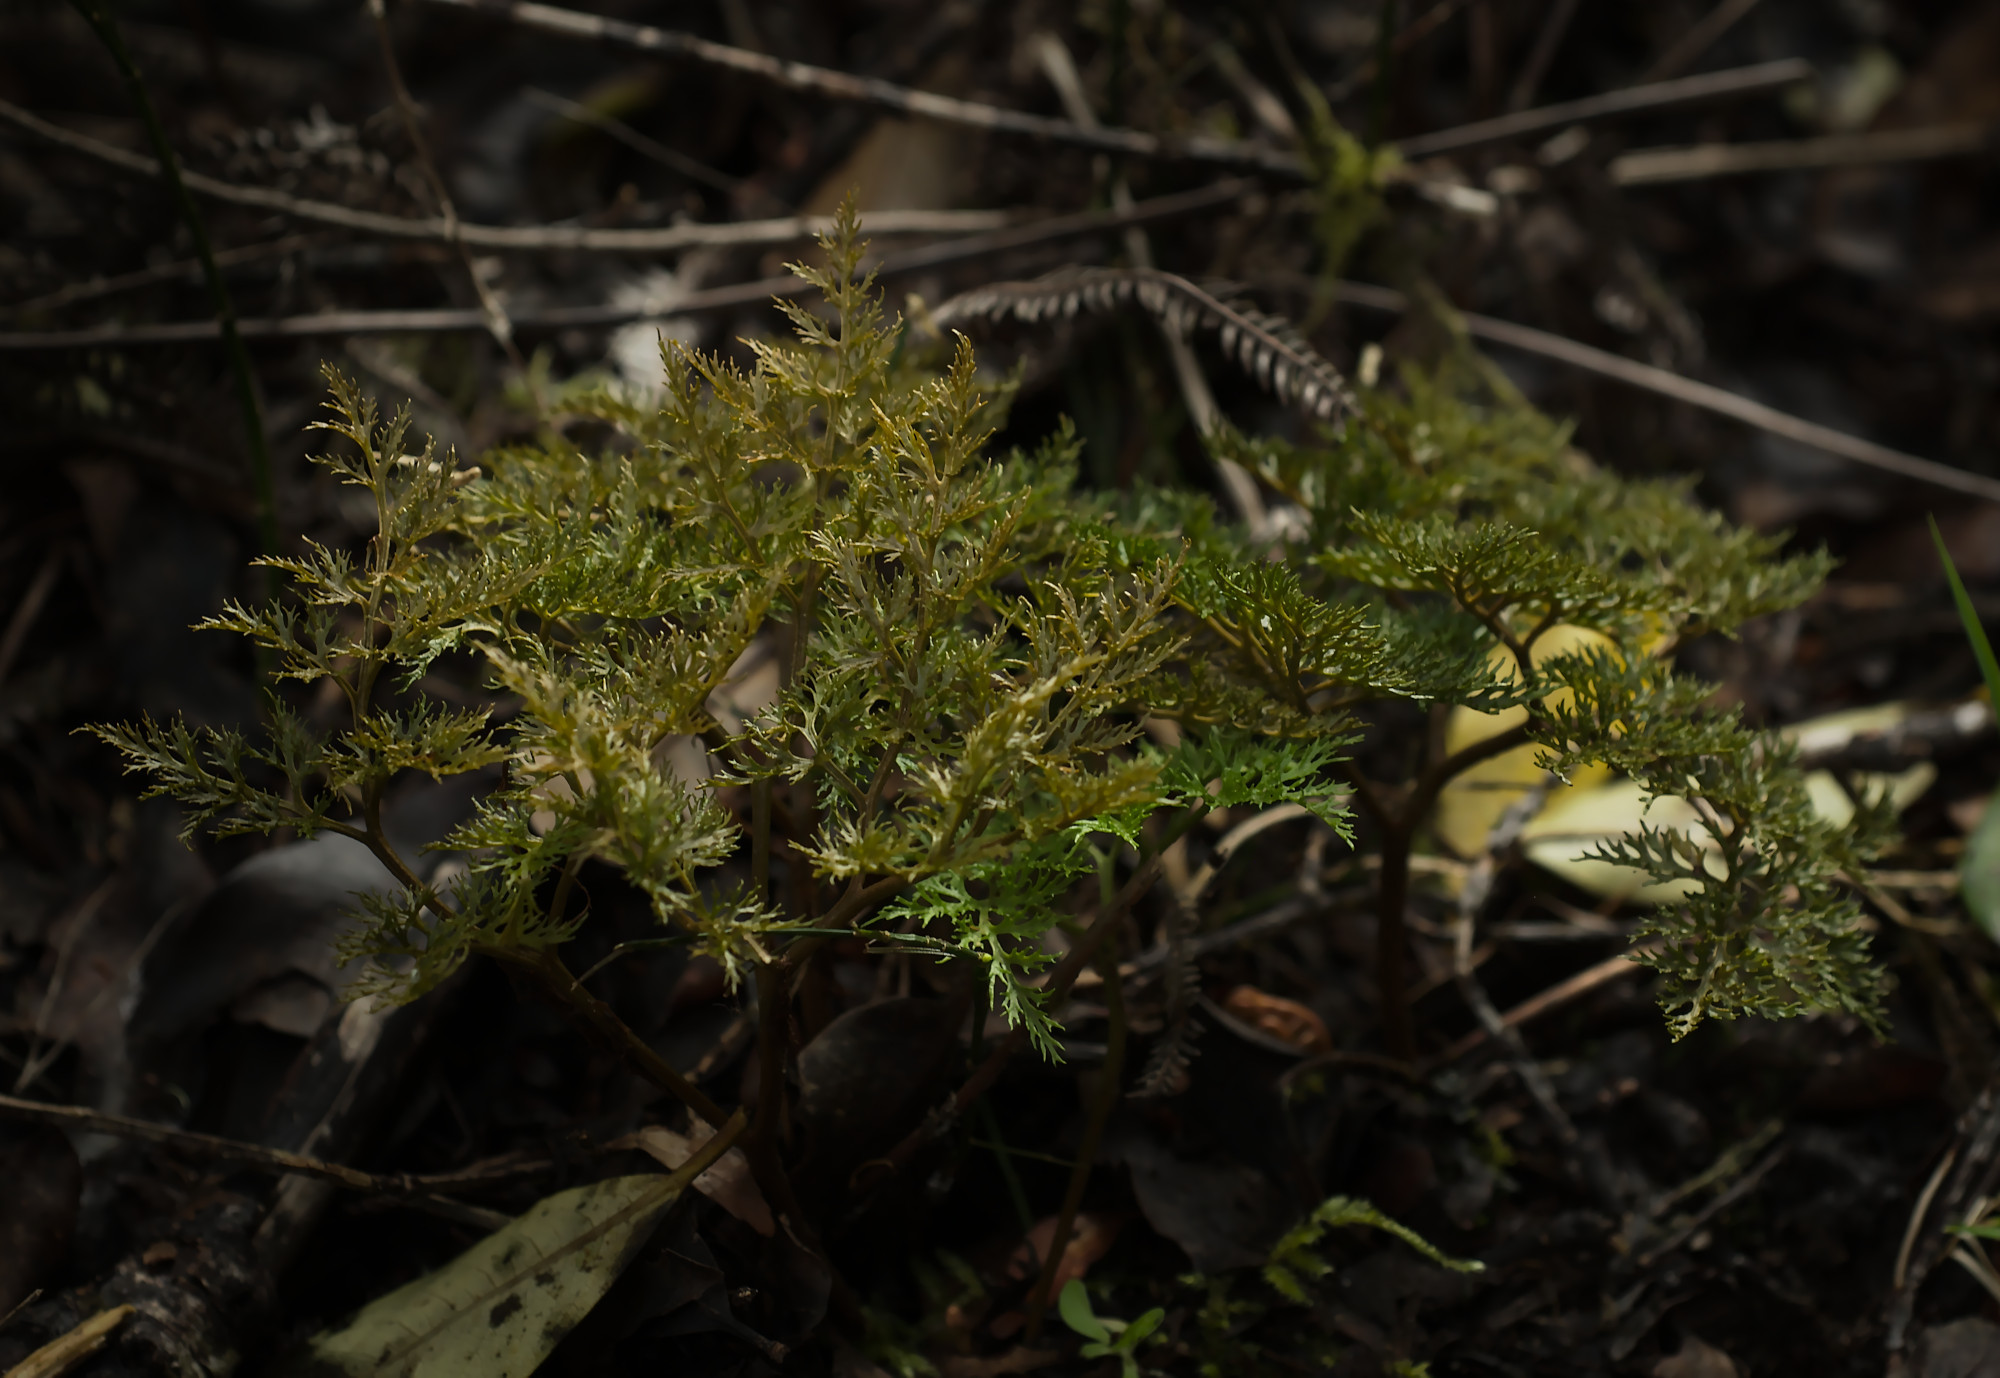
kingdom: Plantae
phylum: Tracheophyta
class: Polypodiopsida
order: Ophioglossales
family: Ophioglossaceae
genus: Sceptridium
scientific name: Sceptridium australe
